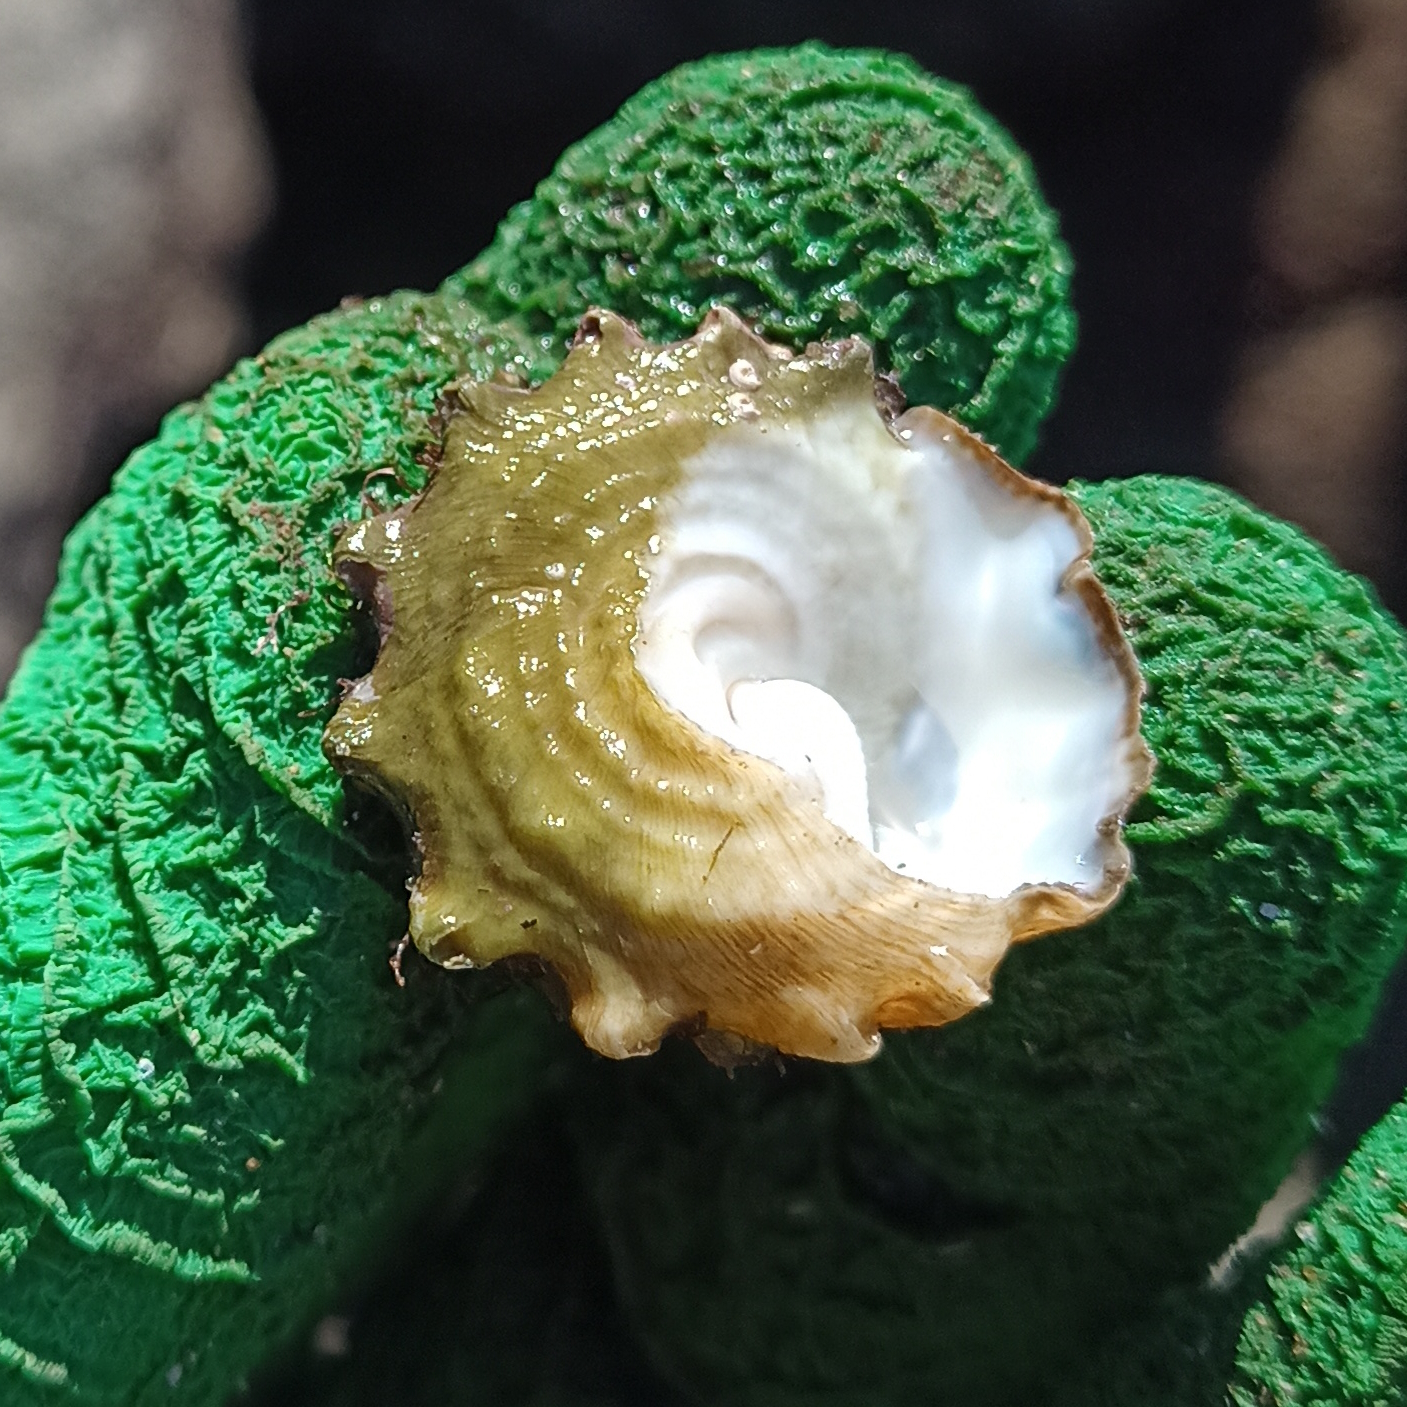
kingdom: Animalia
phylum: Mollusca
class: Gastropoda
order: Trochida
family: Turbinidae
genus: Lithopoma
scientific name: Lithopoma tectum
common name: West indian starsnail
